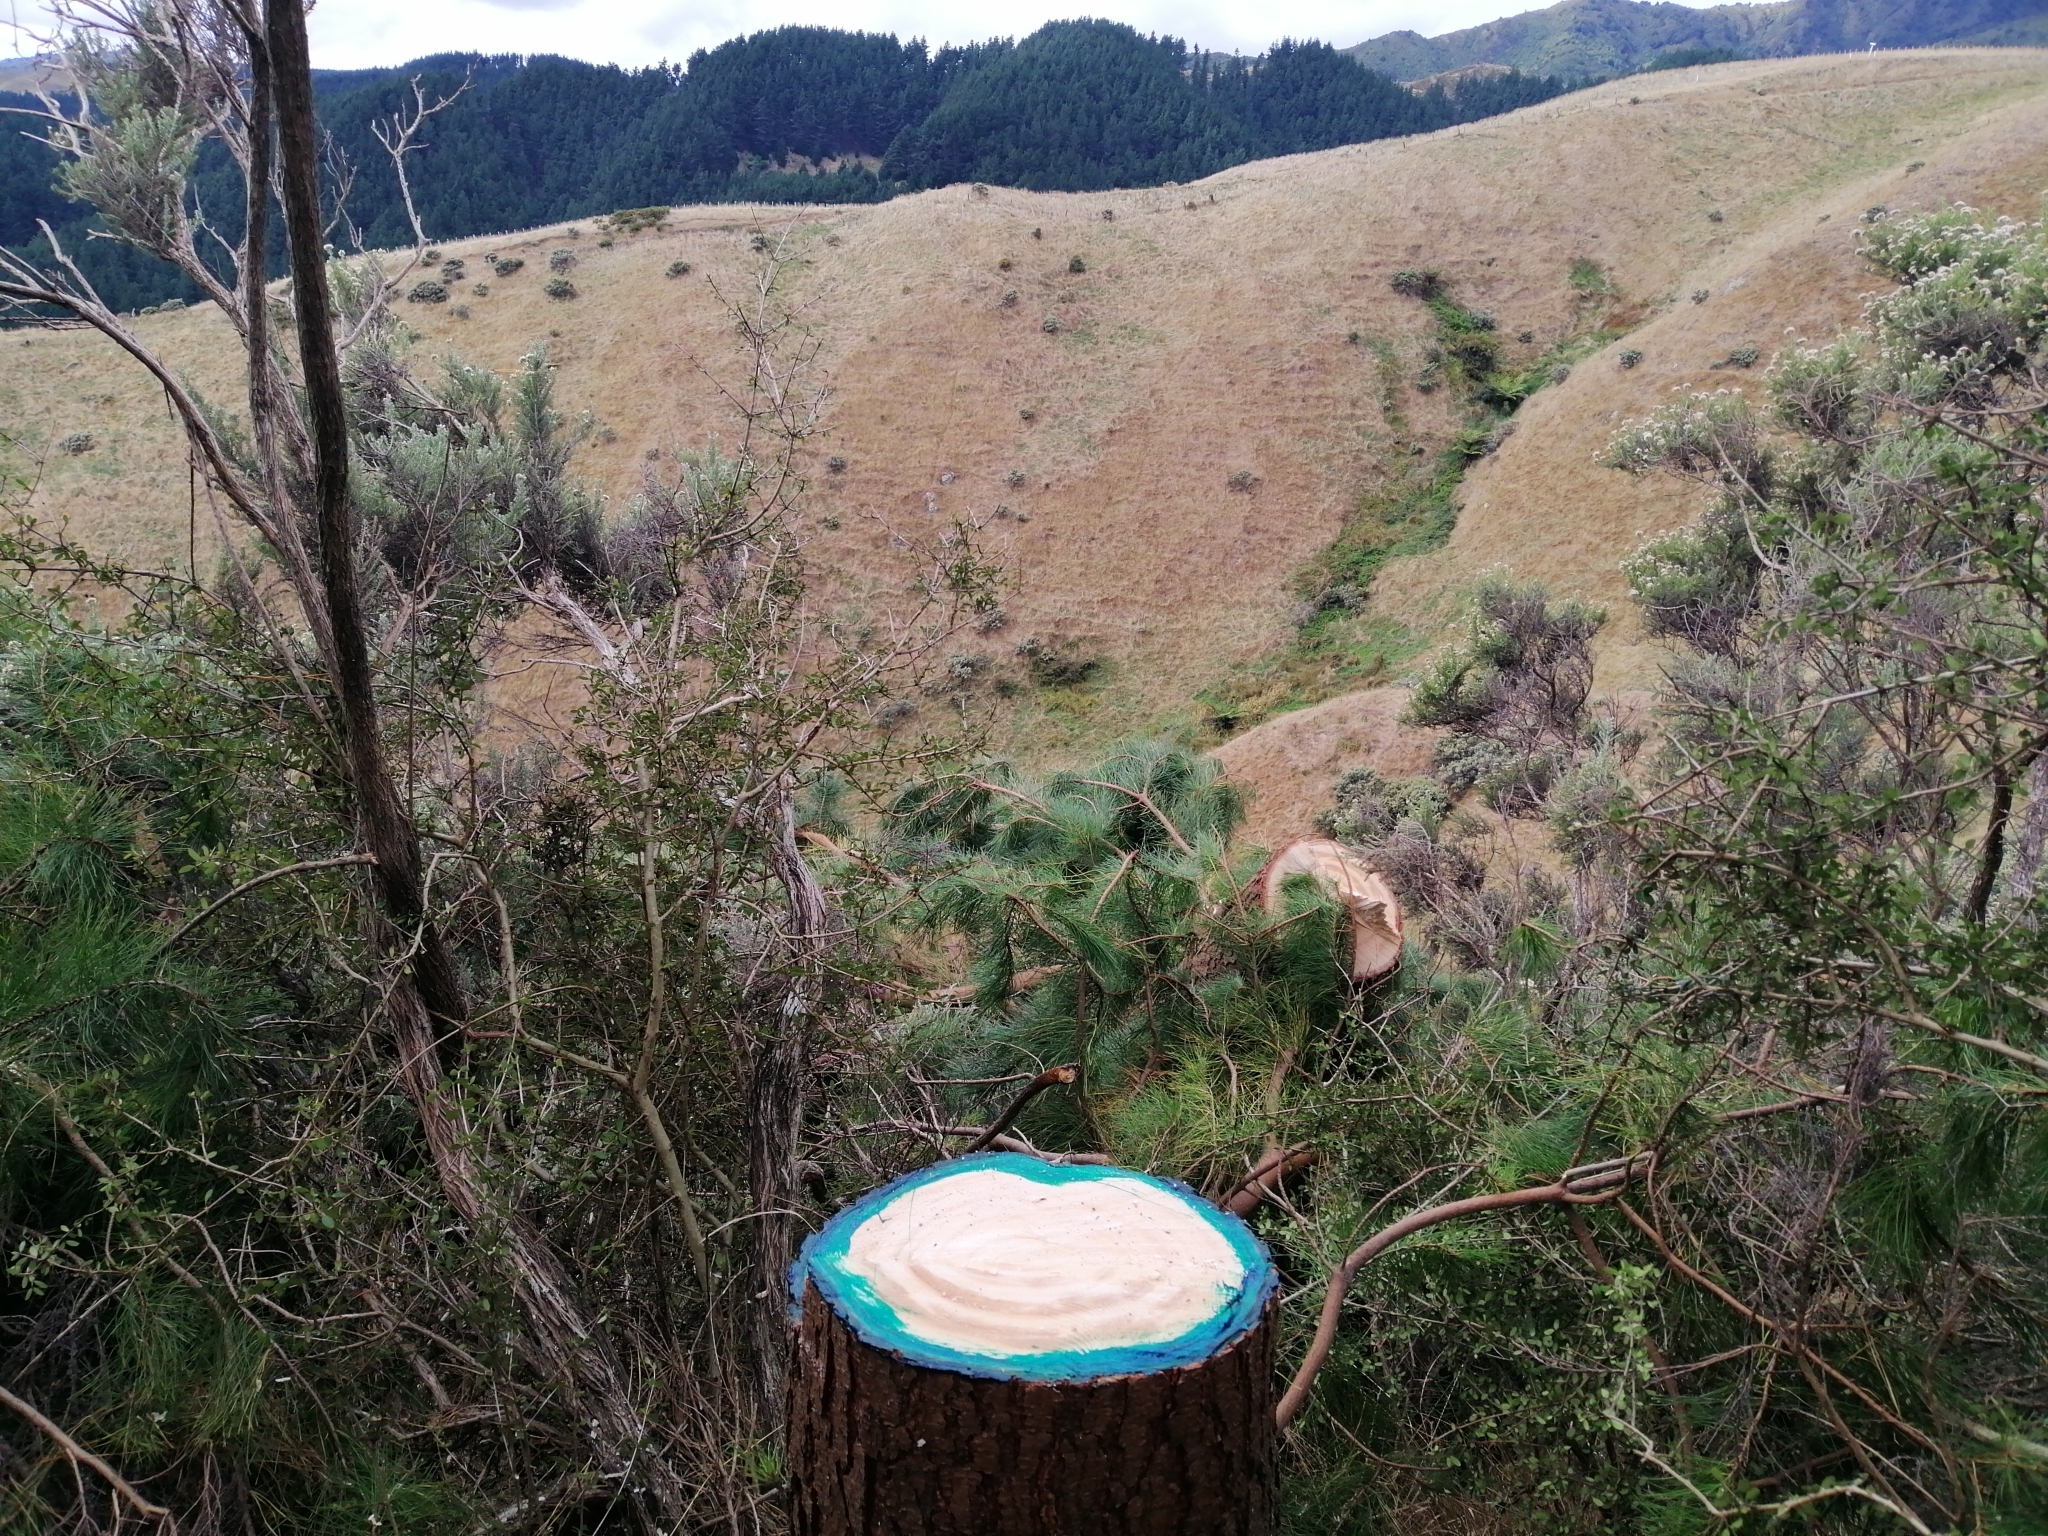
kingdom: Plantae
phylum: Tracheophyta
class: Pinopsida
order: Pinales
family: Pinaceae
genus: Pinus
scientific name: Pinus radiata
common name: Monterey pine
